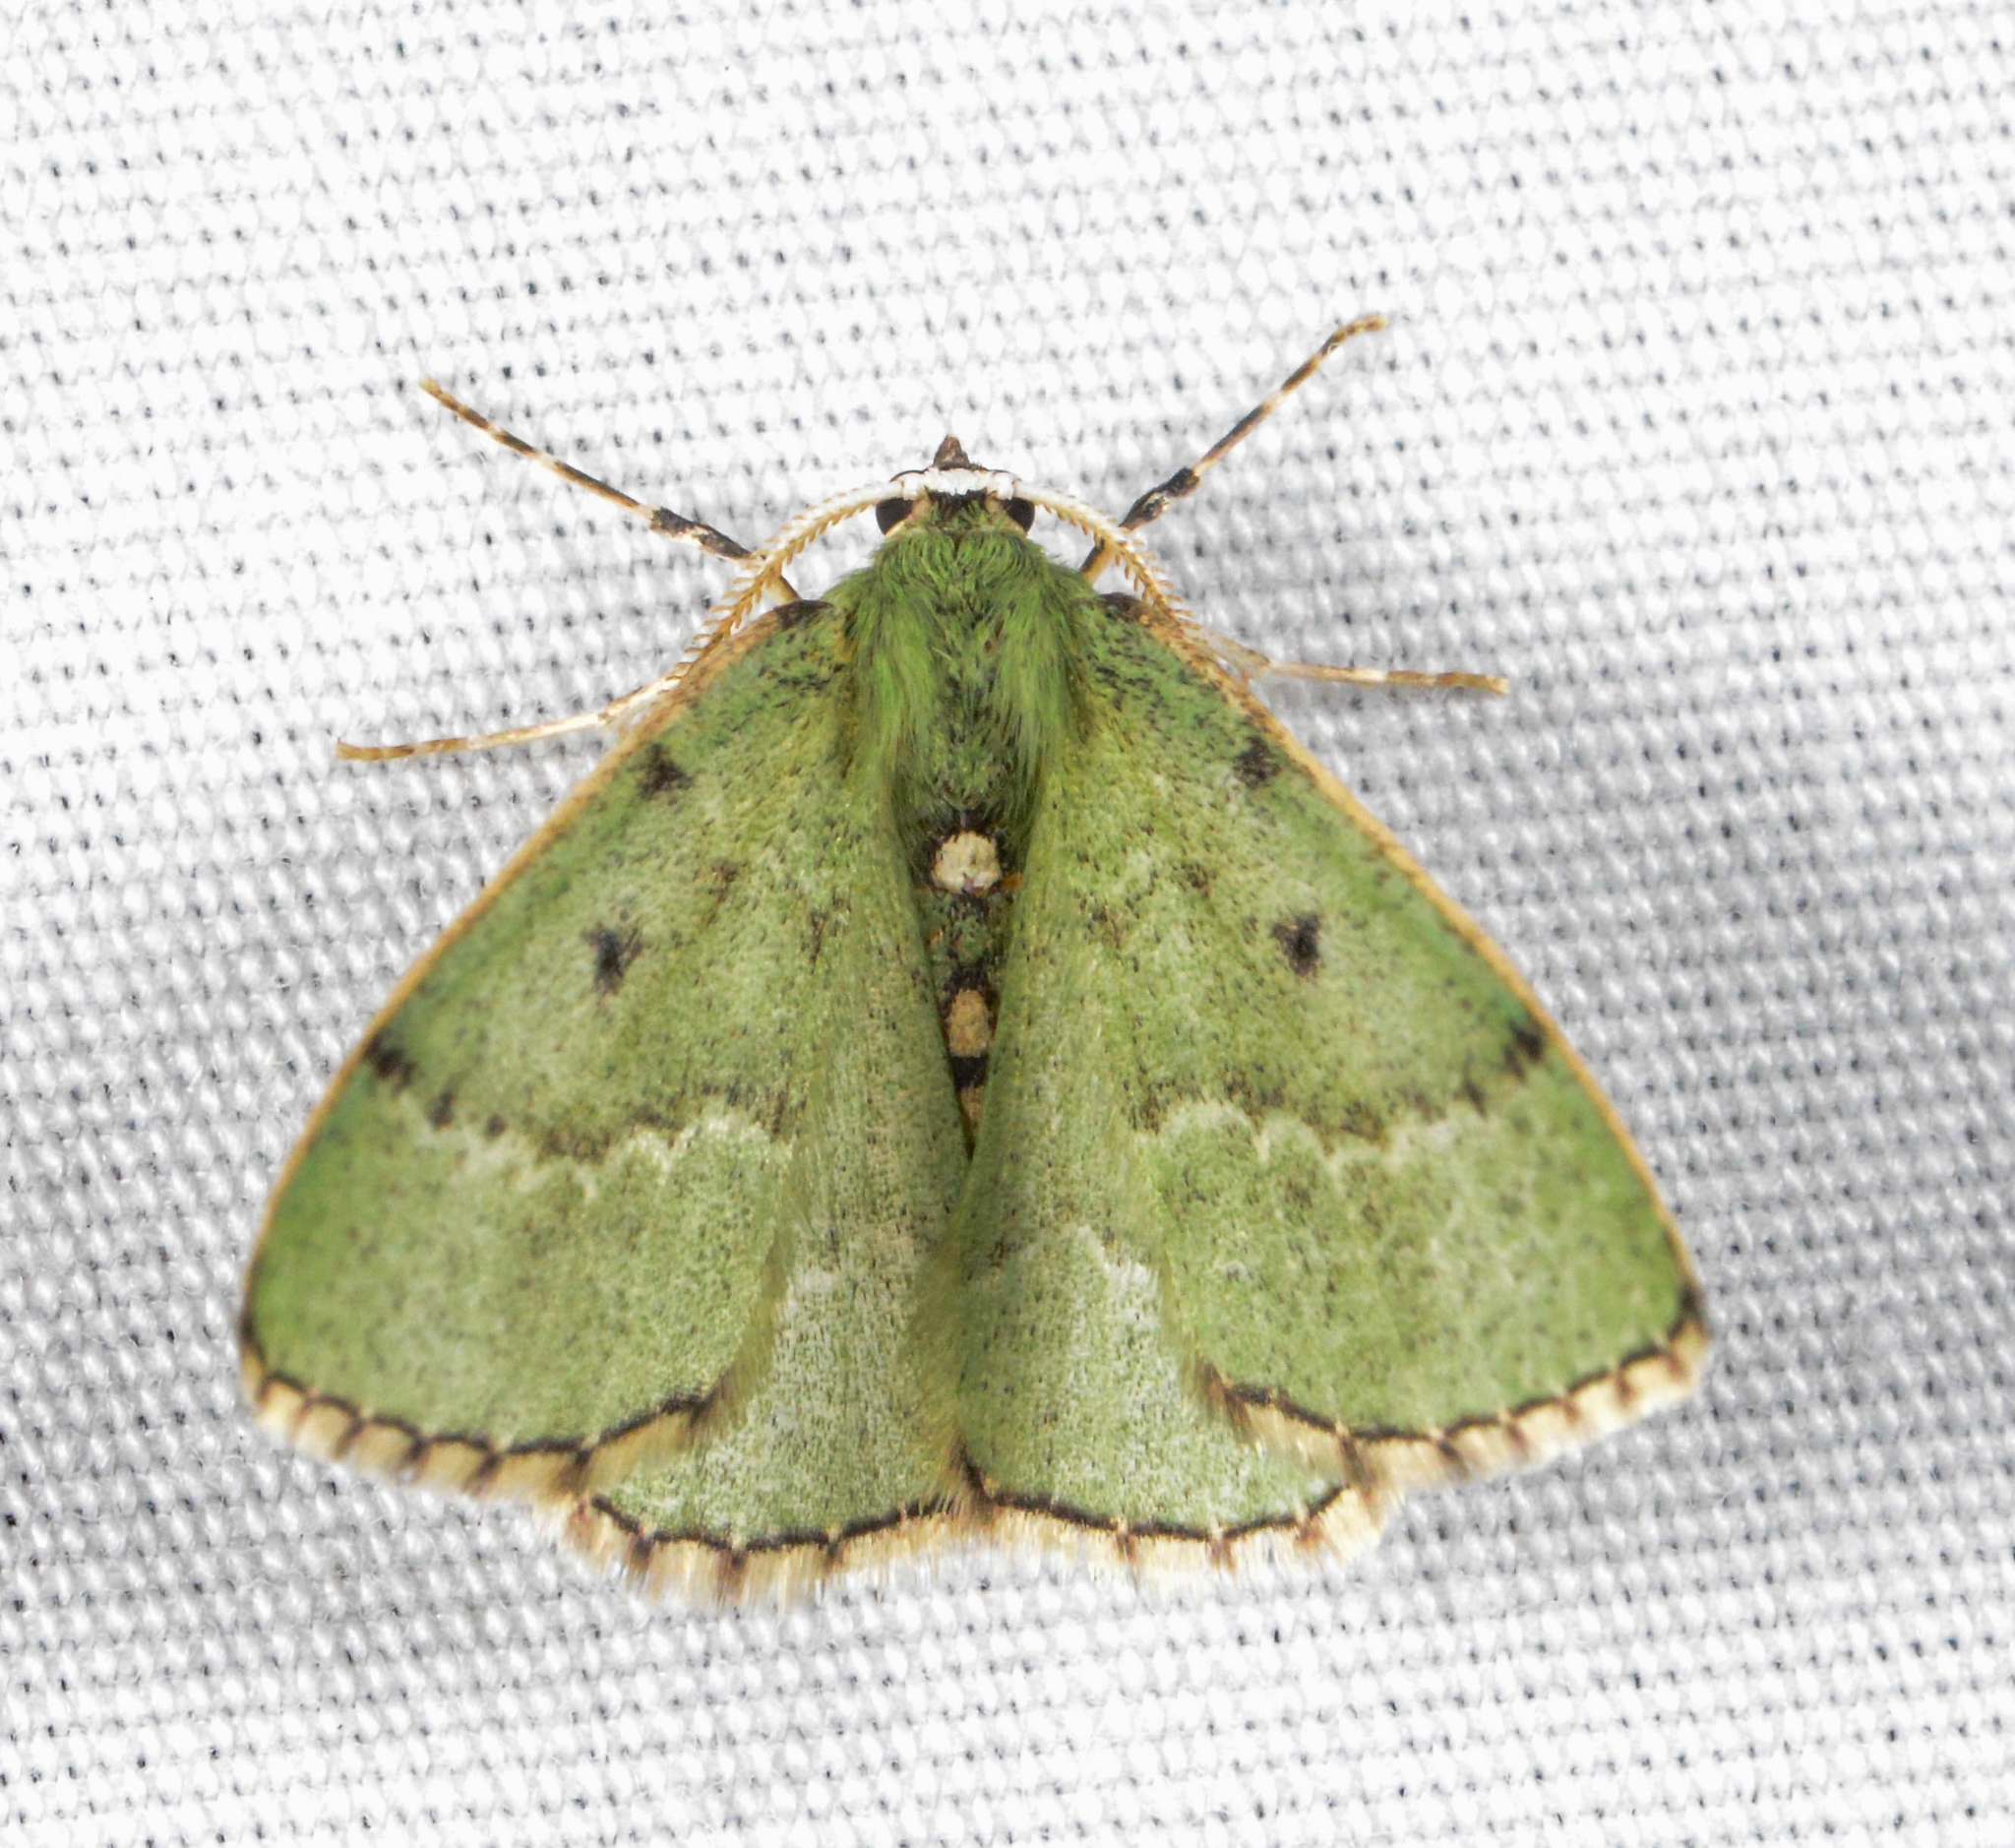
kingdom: Animalia
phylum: Arthropoda
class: Insecta
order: Lepidoptera
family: Geometridae
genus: Nemoria
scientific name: Nemoria lixaria
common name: Red-bordered emerald
